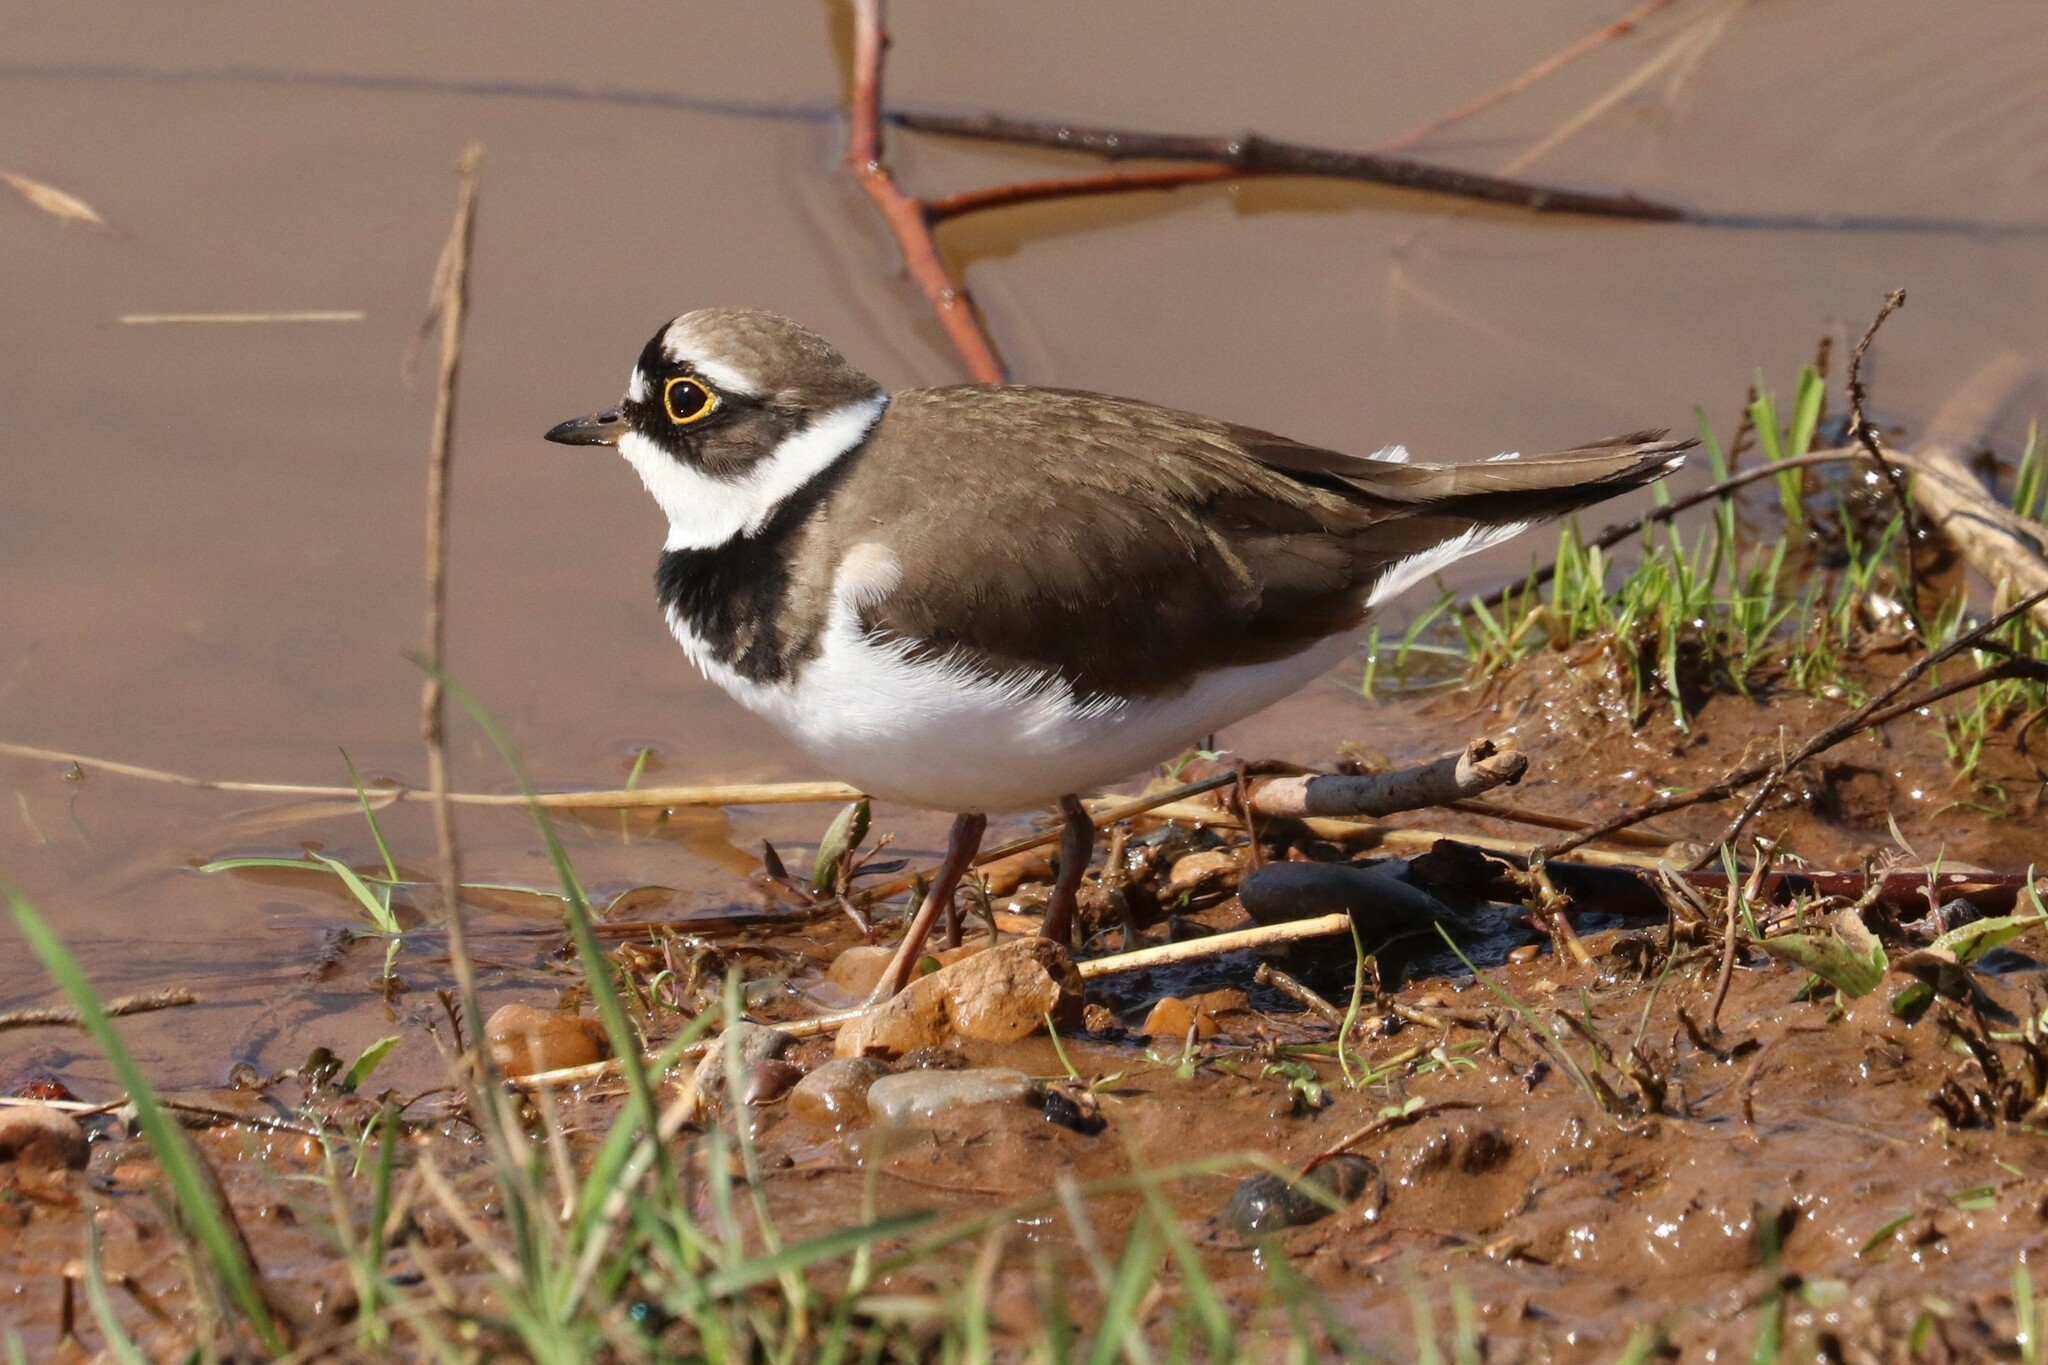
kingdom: Animalia
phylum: Chordata
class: Aves
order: Charadriiformes
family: Charadriidae
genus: Charadrius
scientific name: Charadrius dubius
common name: Little ringed plover
